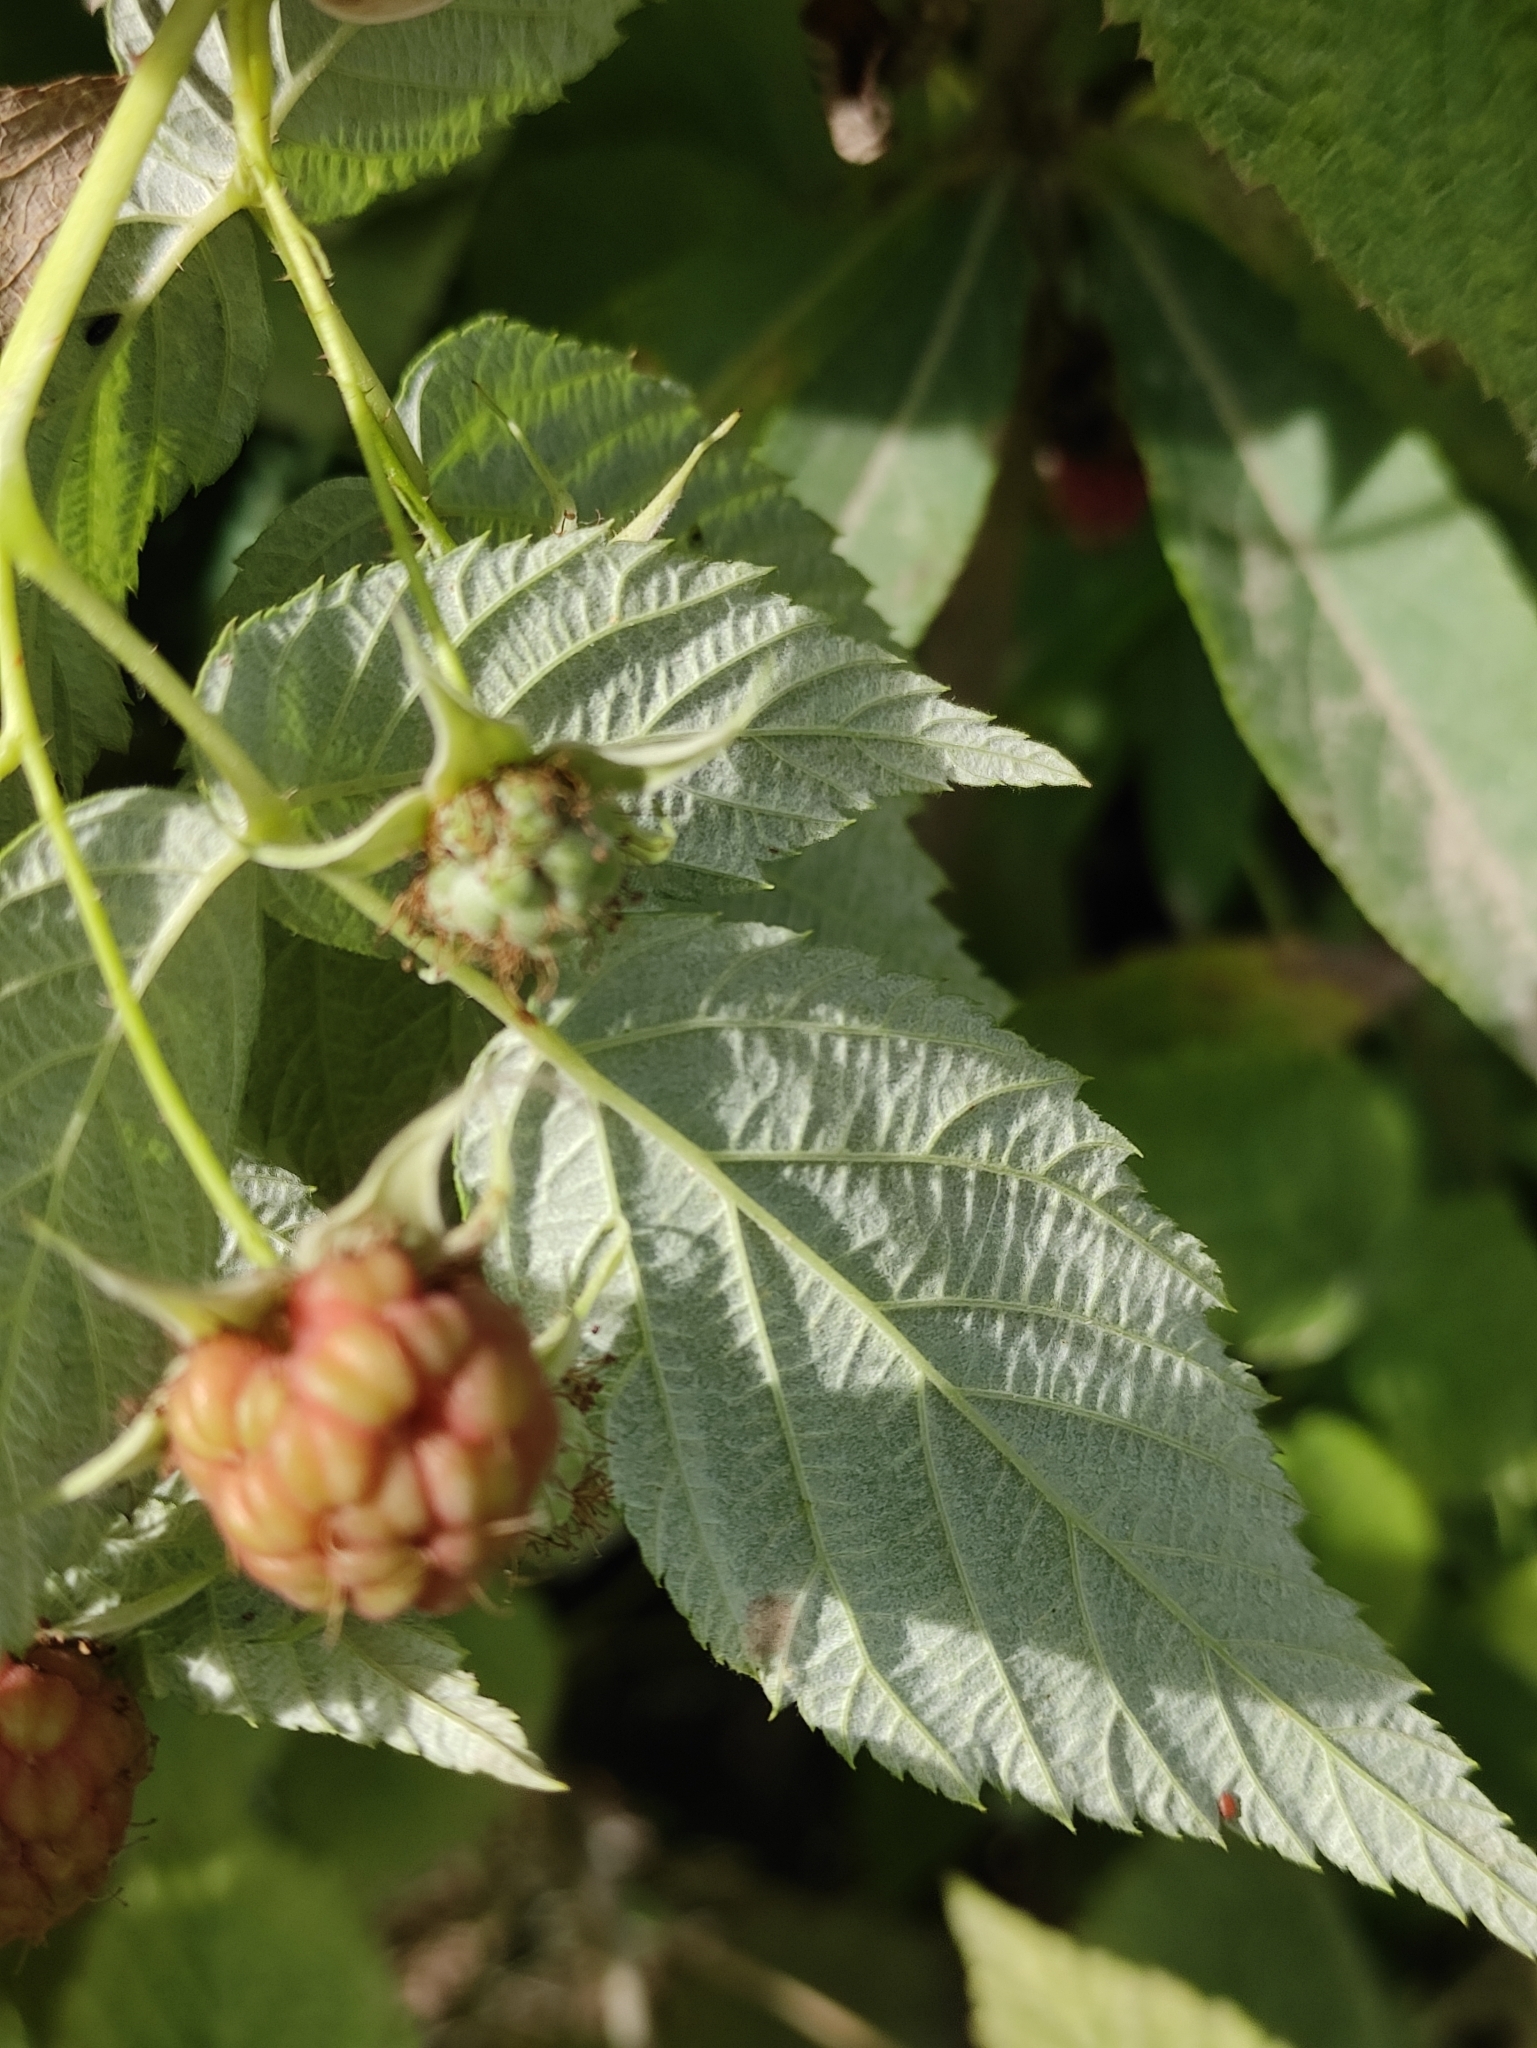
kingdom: Plantae
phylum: Tracheophyta
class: Magnoliopsida
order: Rosales
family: Rosaceae
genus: Rubus
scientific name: Rubus idaeus
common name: Raspberry
